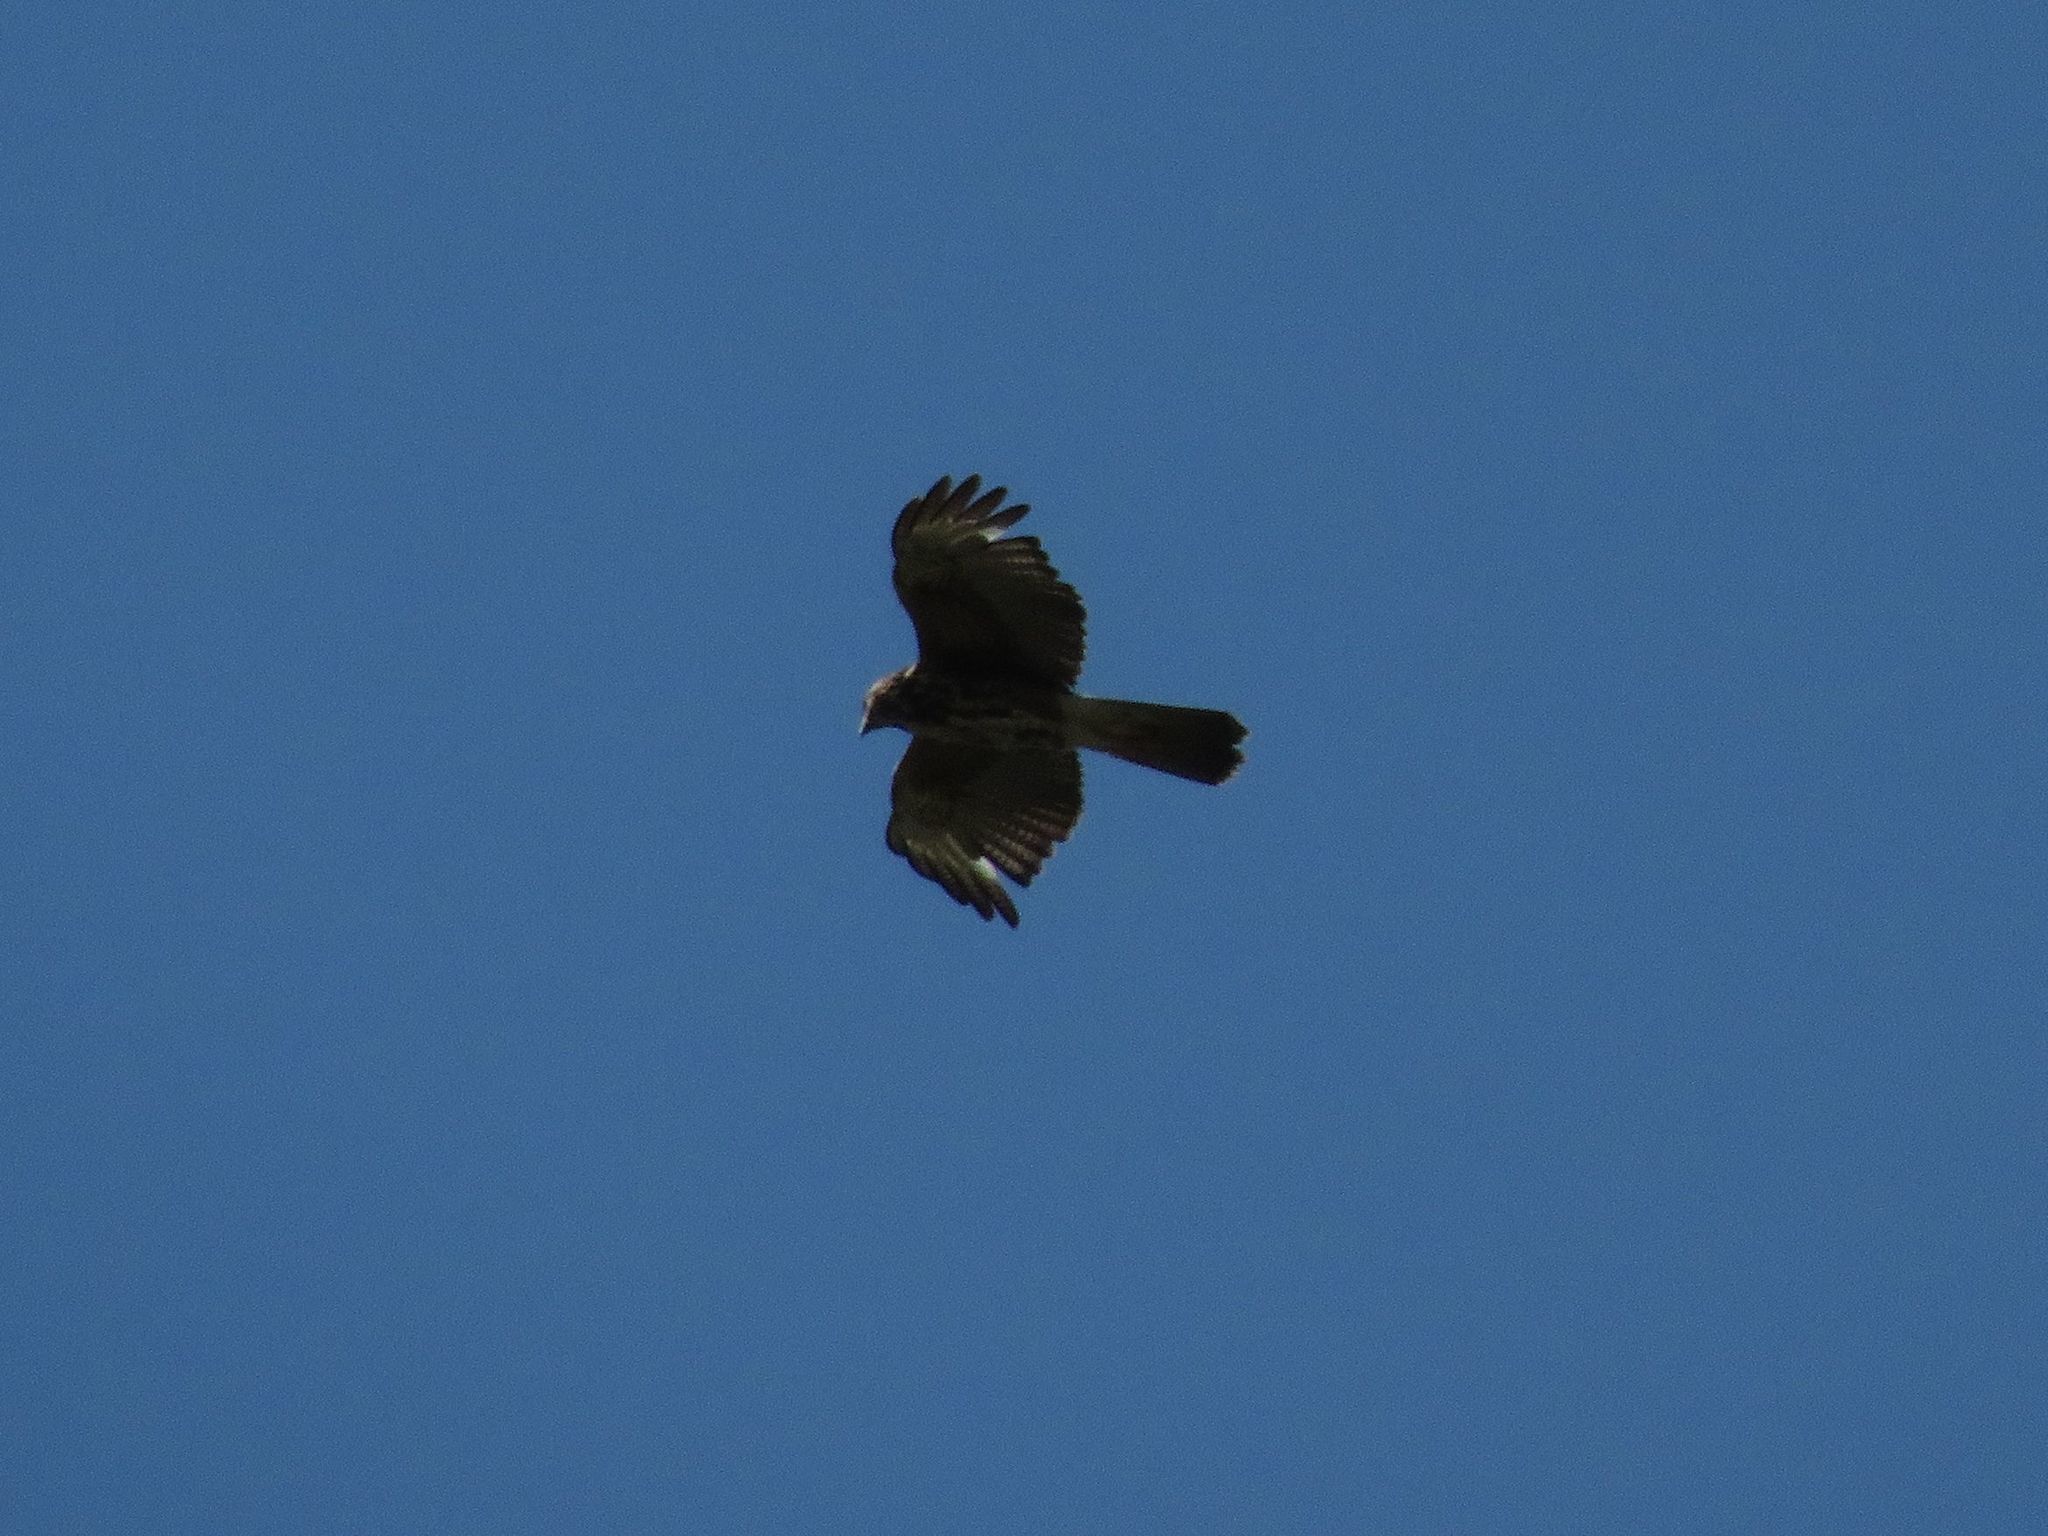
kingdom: Animalia
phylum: Chordata
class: Aves
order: Accipitriformes
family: Accipitridae
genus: Parabuteo
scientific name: Parabuteo unicinctus
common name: Harris's hawk
